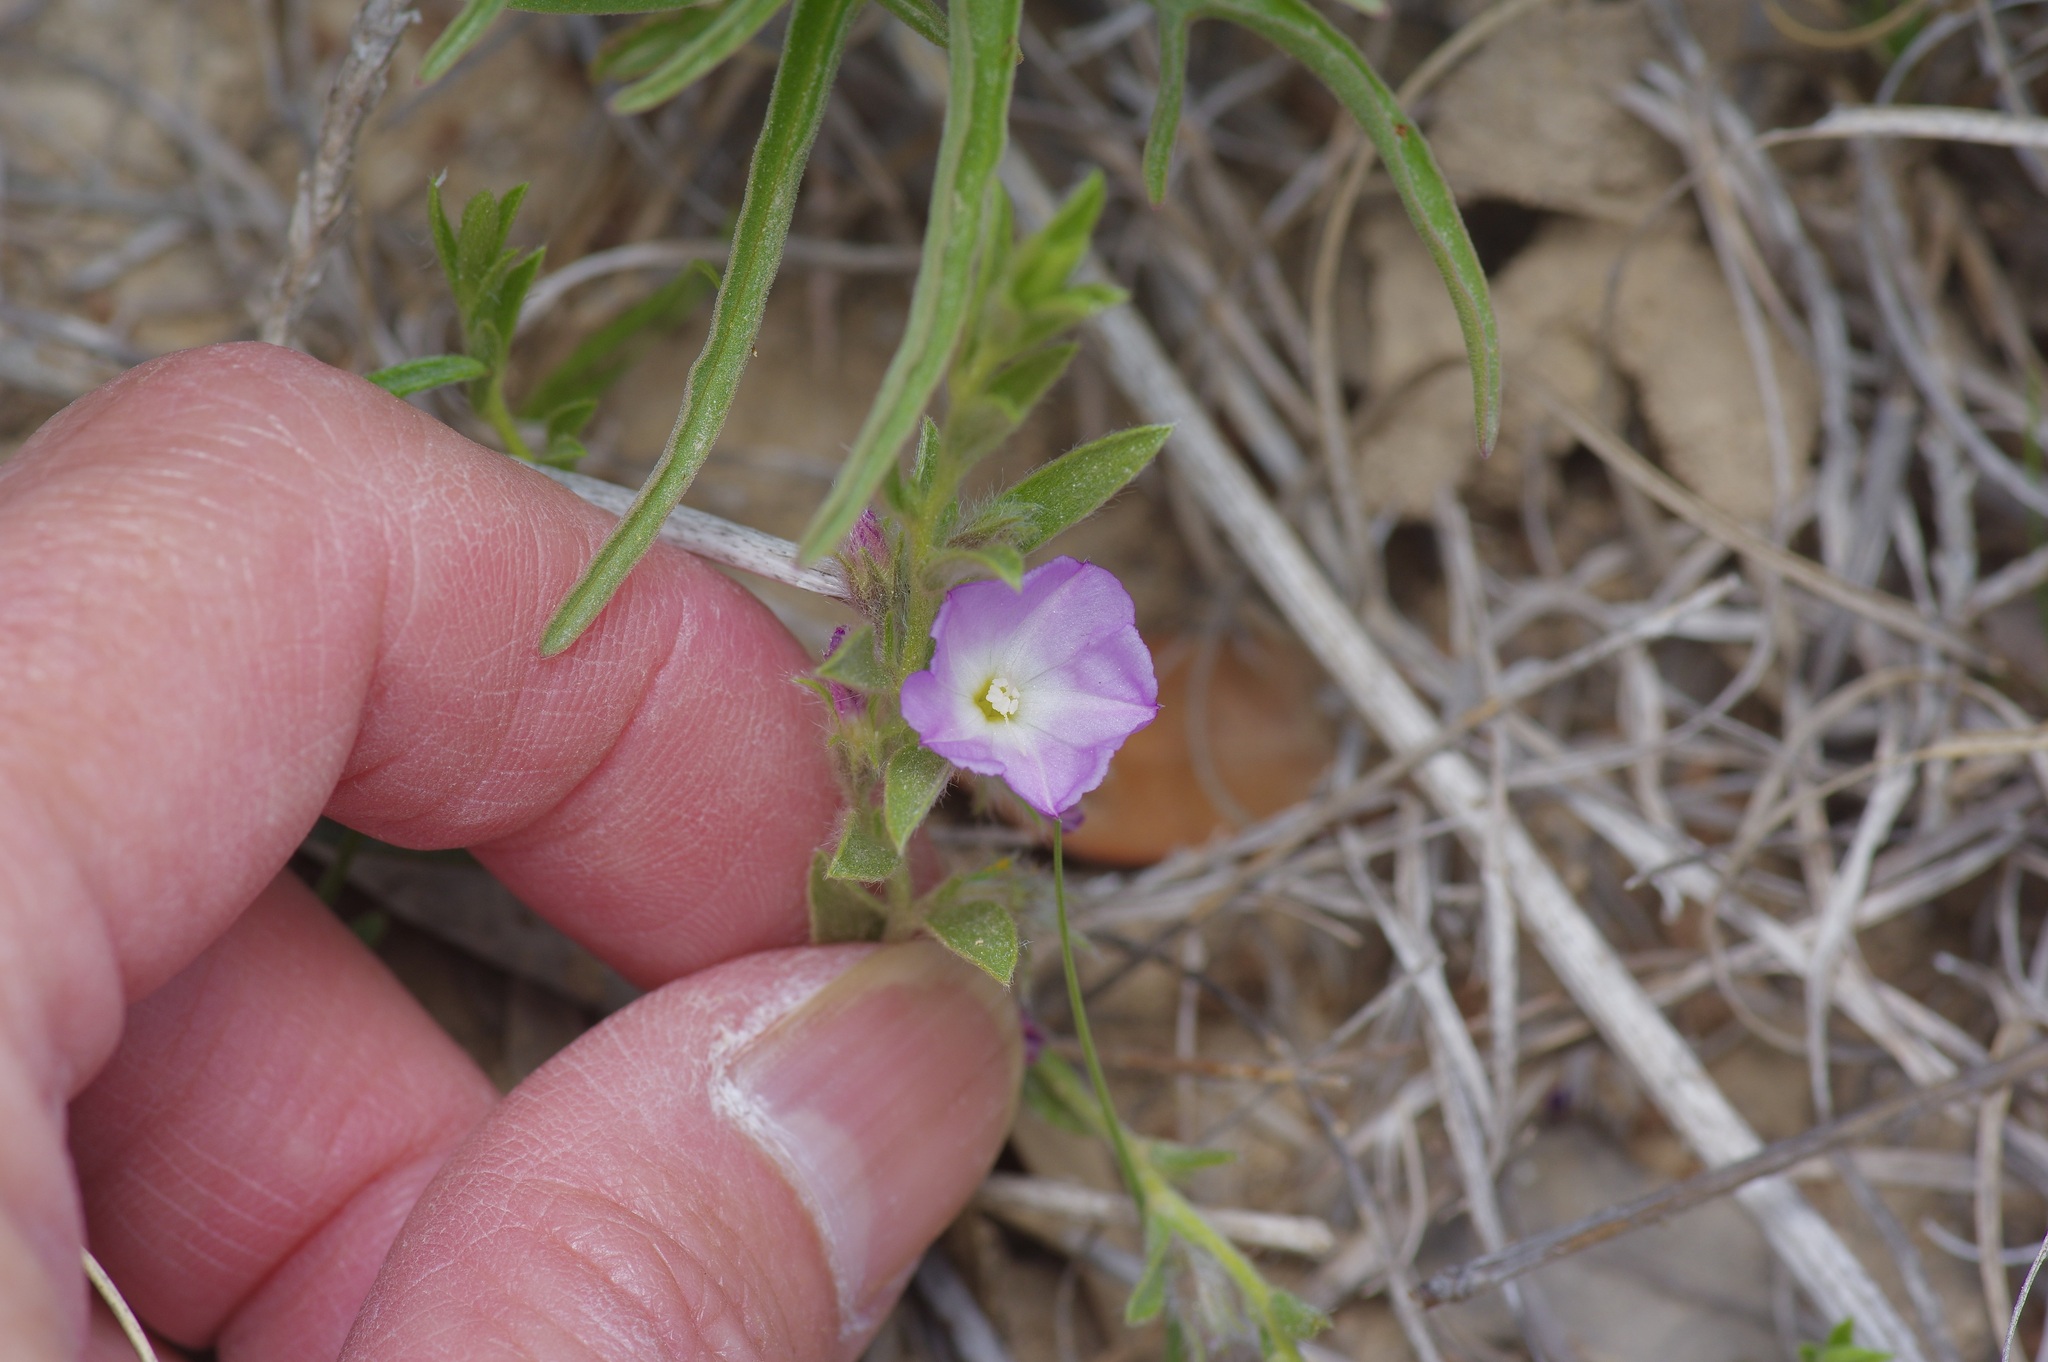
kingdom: Plantae
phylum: Tracheophyta
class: Magnoliopsida
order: Solanales
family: Convolvulaceae
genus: Evolvulus
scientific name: Evolvulus nuttallianus
